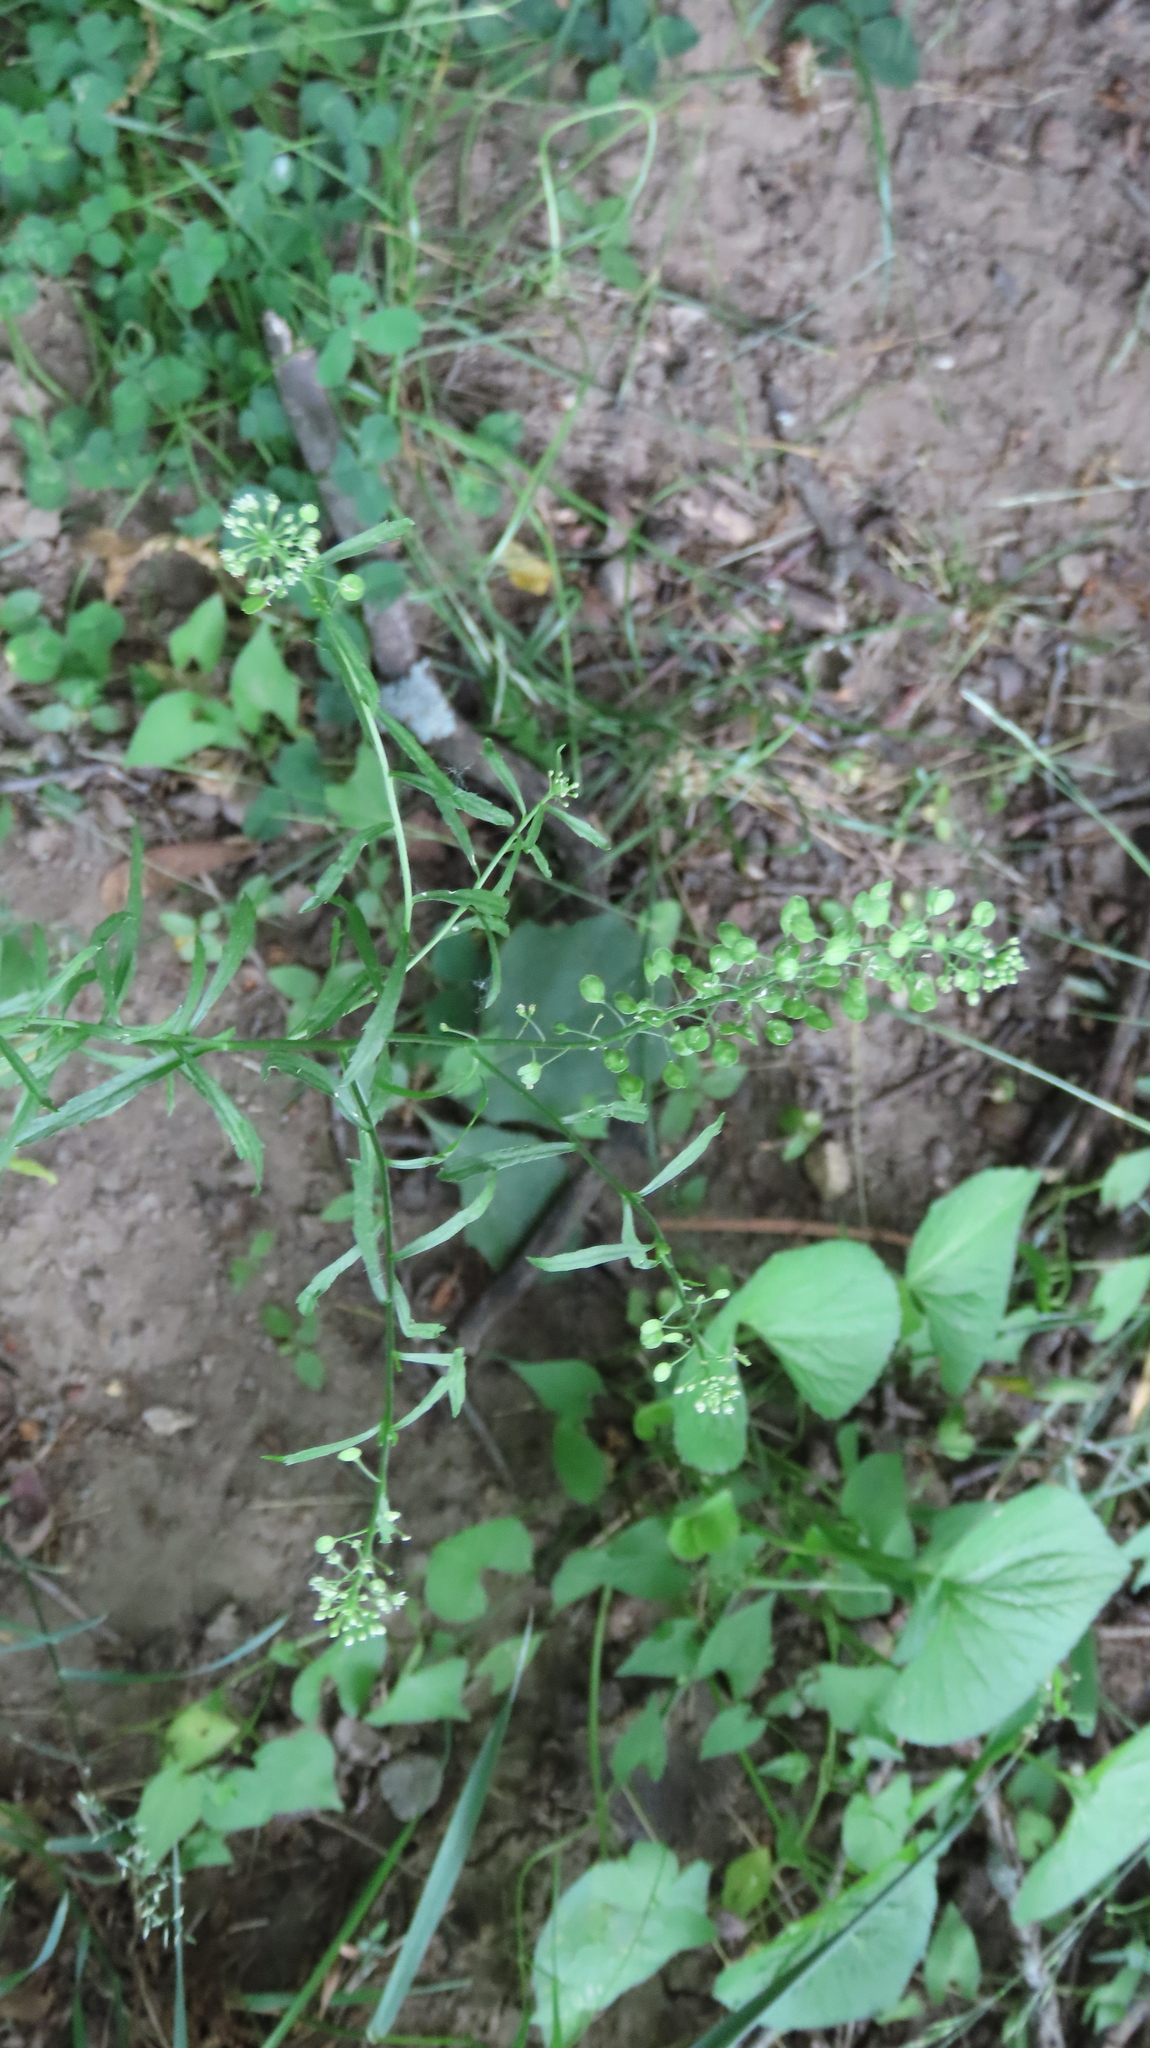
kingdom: Plantae
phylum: Tracheophyta
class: Magnoliopsida
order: Brassicales
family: Brassicaceae
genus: Lepidium
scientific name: Lepidium virginicum
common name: Least pepperwort
